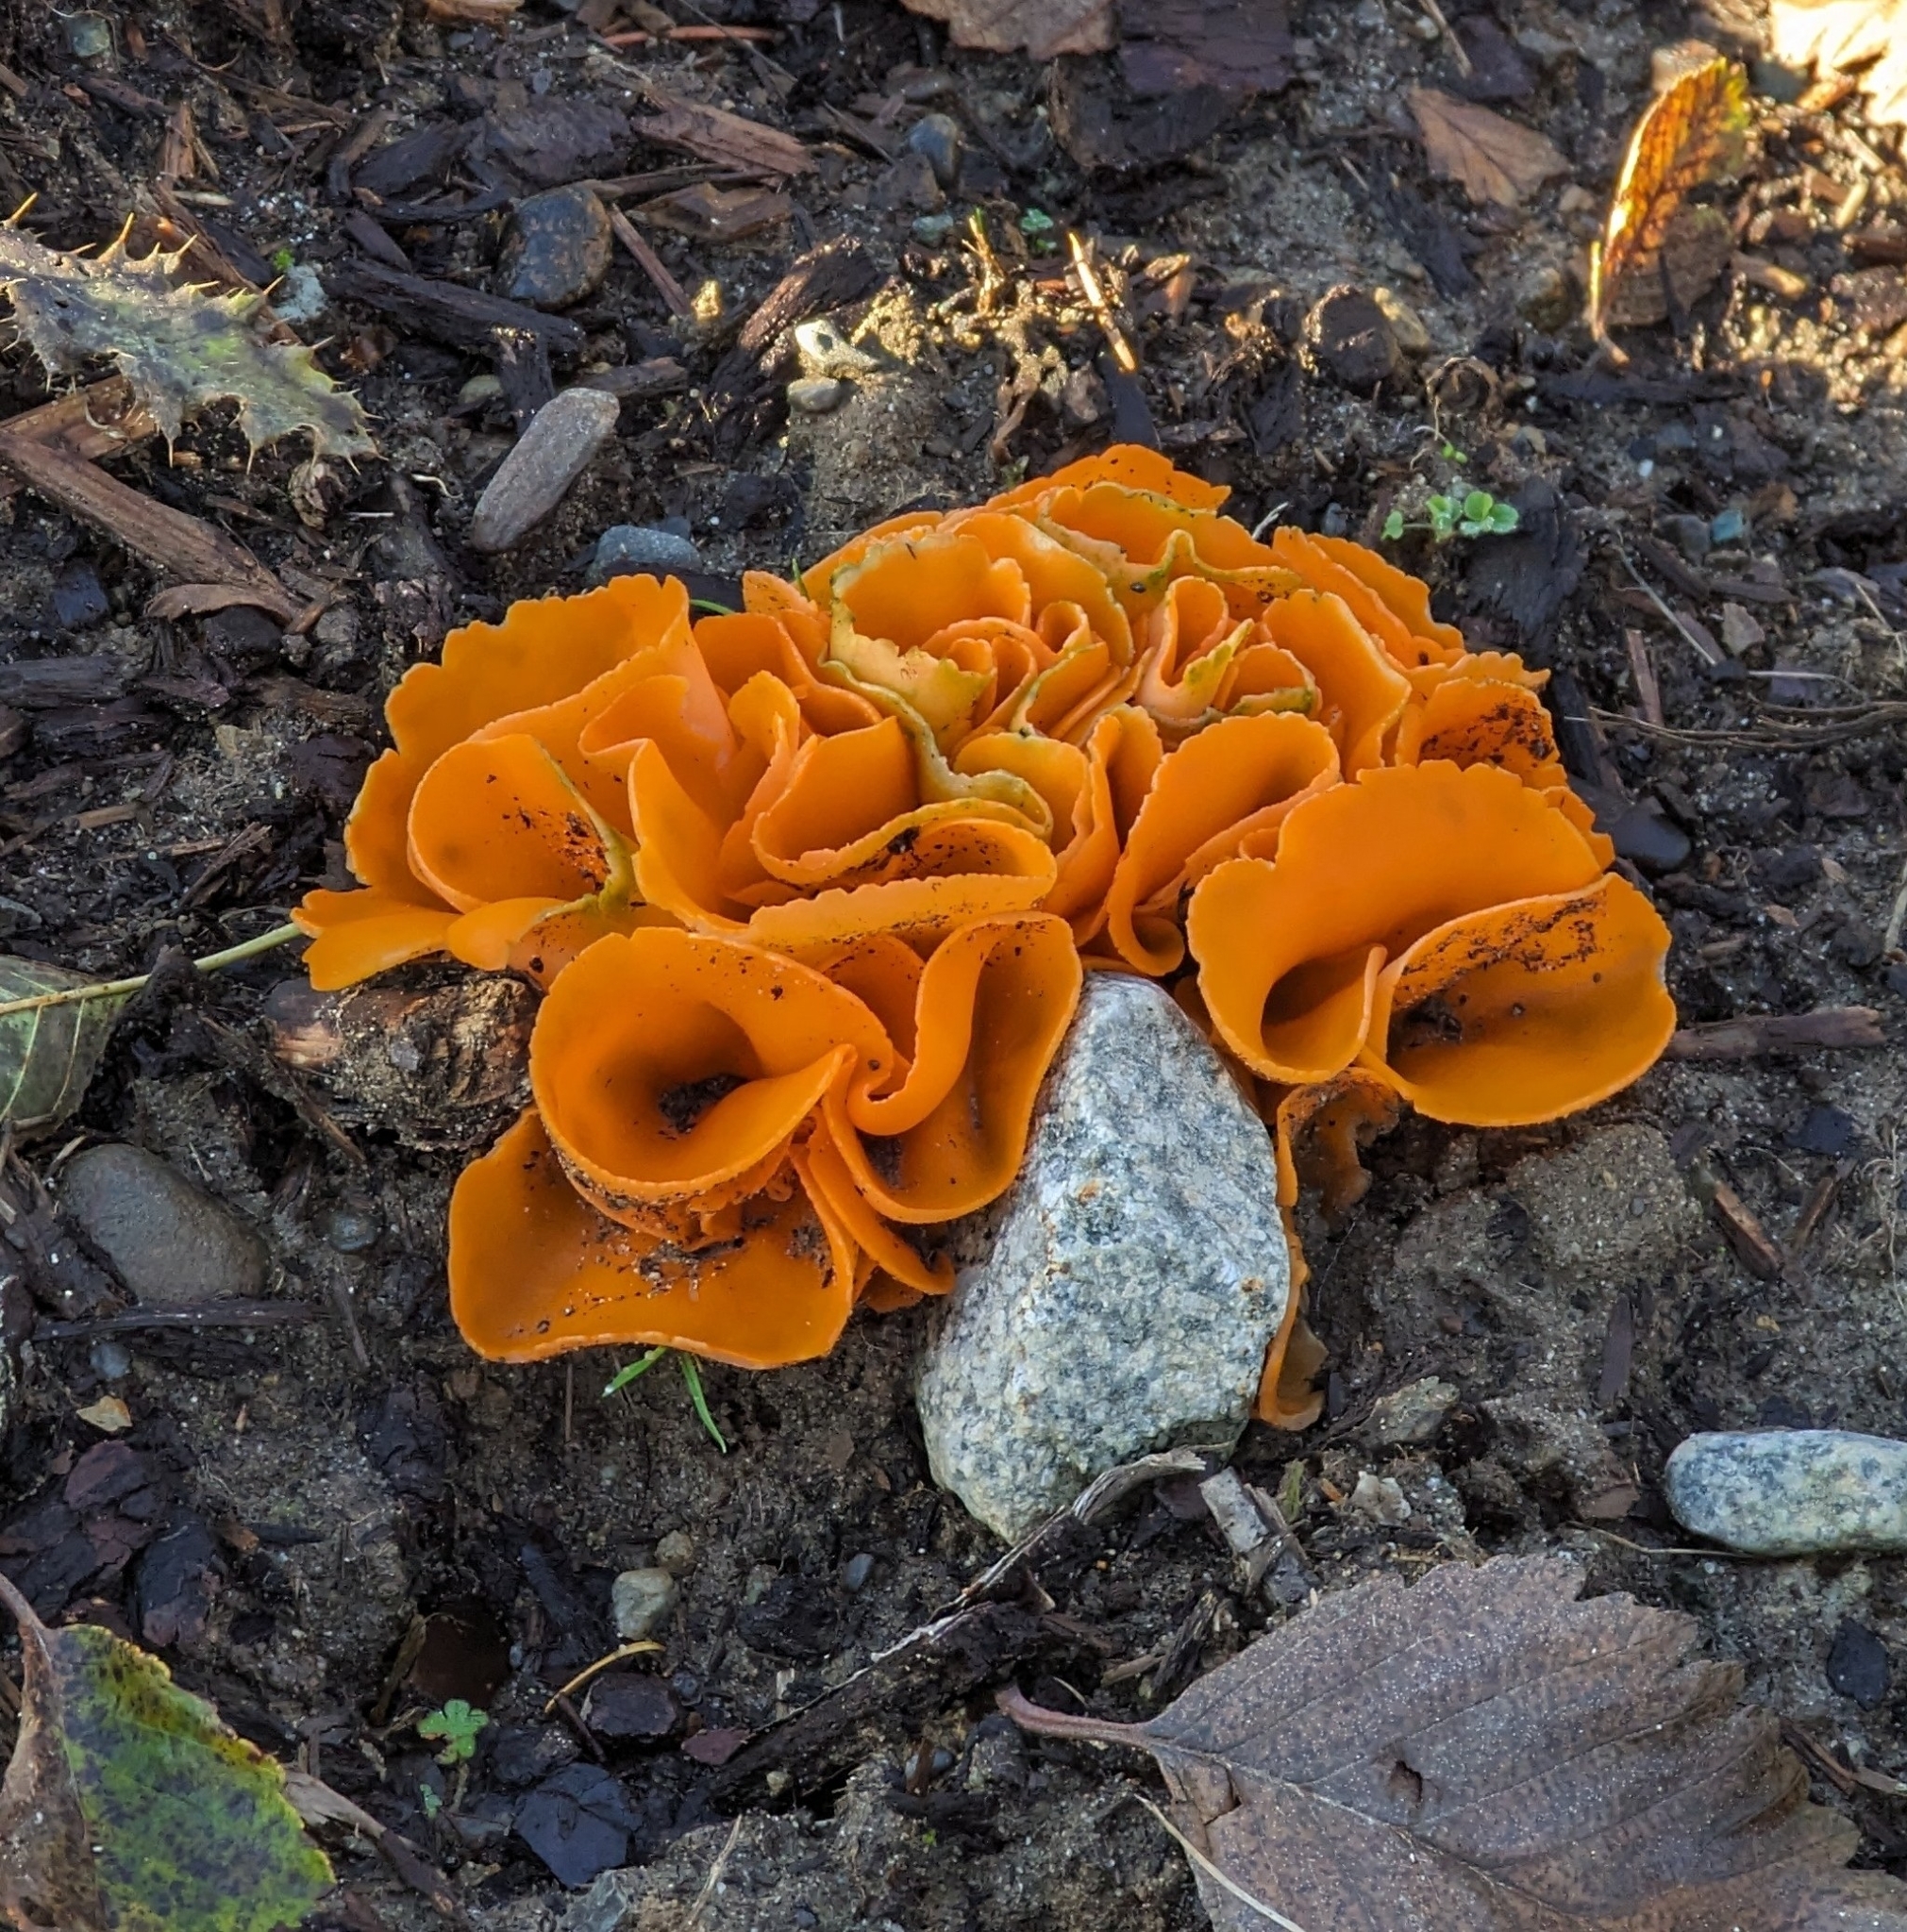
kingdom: Fungi
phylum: Ascomycota
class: Pezizomycetes
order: Pezizales
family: Pyronemataceae
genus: Aleuria
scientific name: Aleuria aurantia
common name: Orange peel fungus
